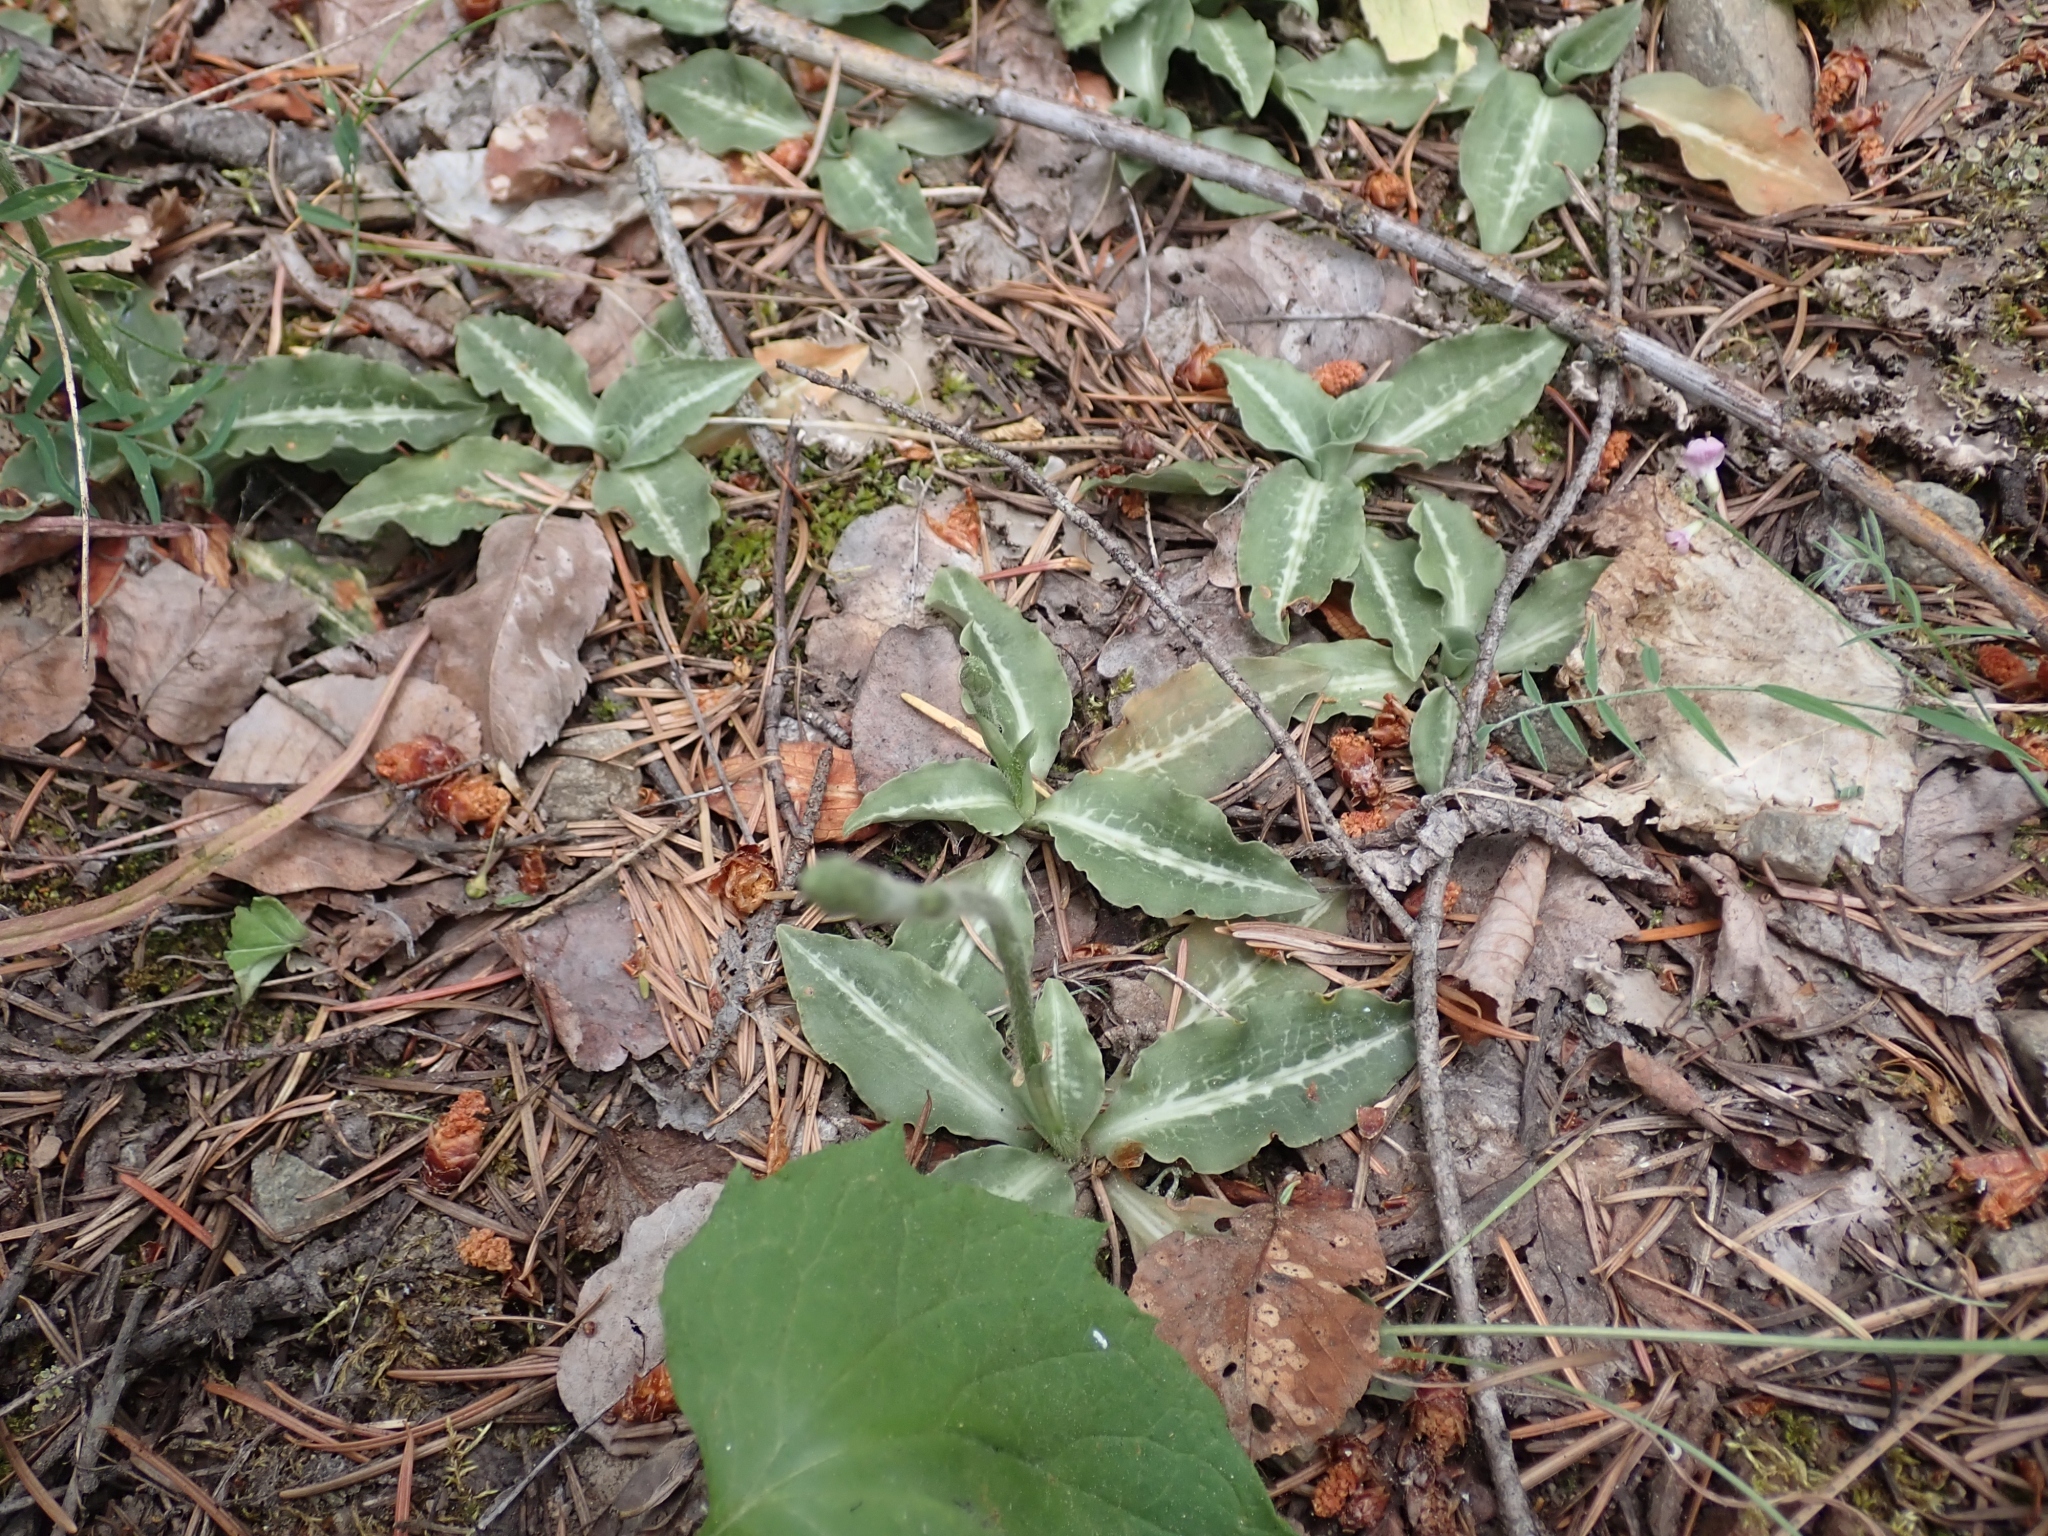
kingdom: Plantae
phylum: Tracheophyta
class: Liliopsida
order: Asparagales
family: Orchidaceae
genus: Goodyera
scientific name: Goodyera oblongifolia
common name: Giant rattlesnake-plantain
